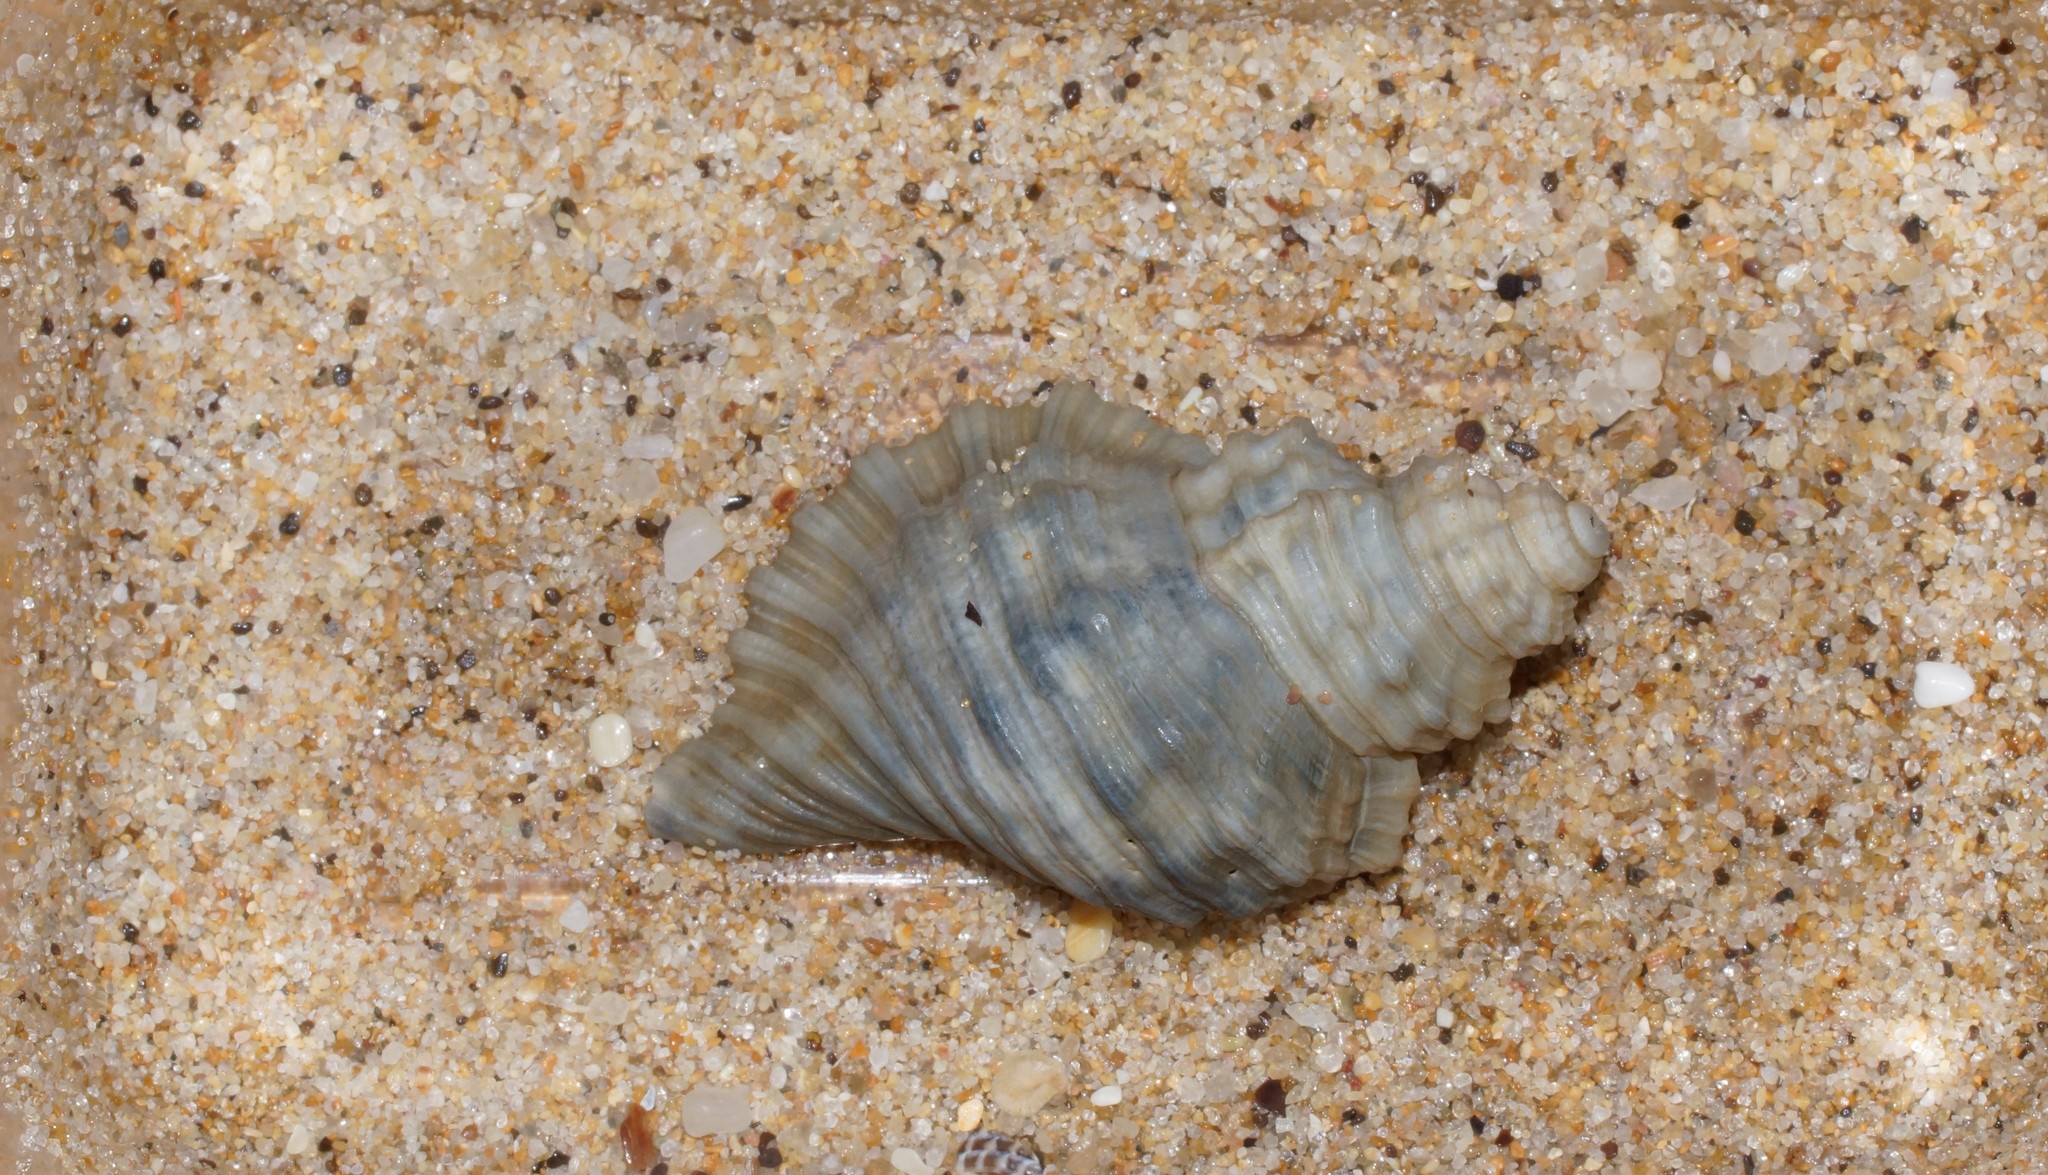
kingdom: Animalia
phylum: Mollusca
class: Gastropoda
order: Littorinimorpha
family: Cymatiidae
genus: Cabestana
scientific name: Cabestana tabulata
